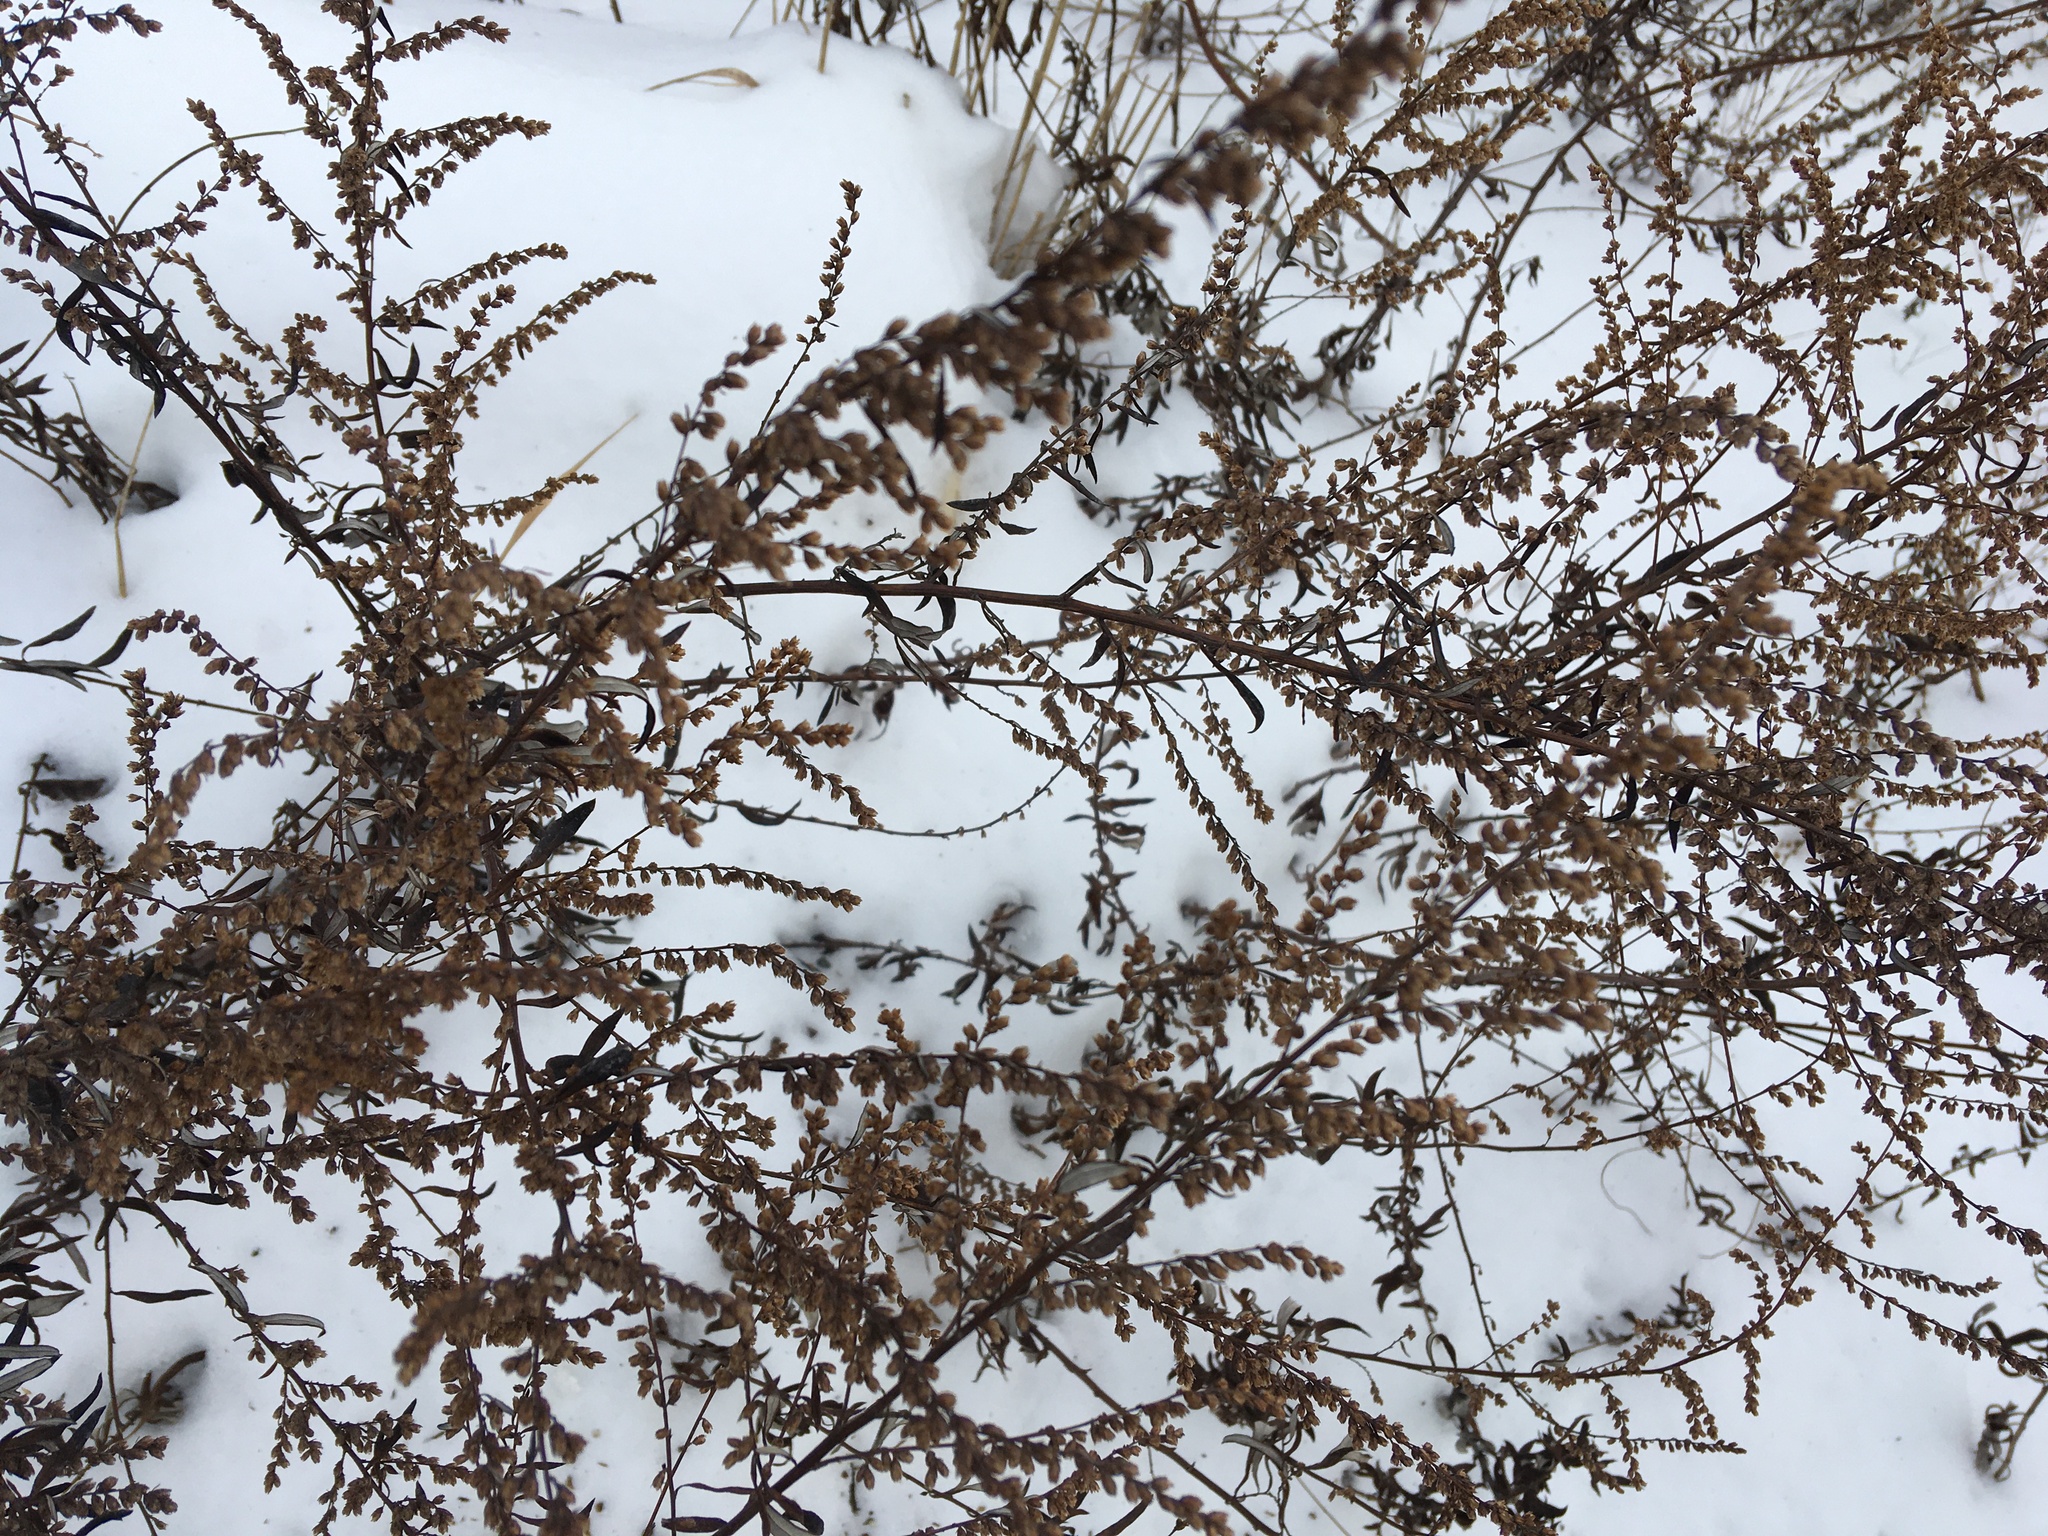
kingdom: Plantae
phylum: Tracheophyta
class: Magnoliopsida
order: Asterales
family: Asteraceae
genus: Artemisia
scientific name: Artemisia vulgaris
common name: Mugwort
